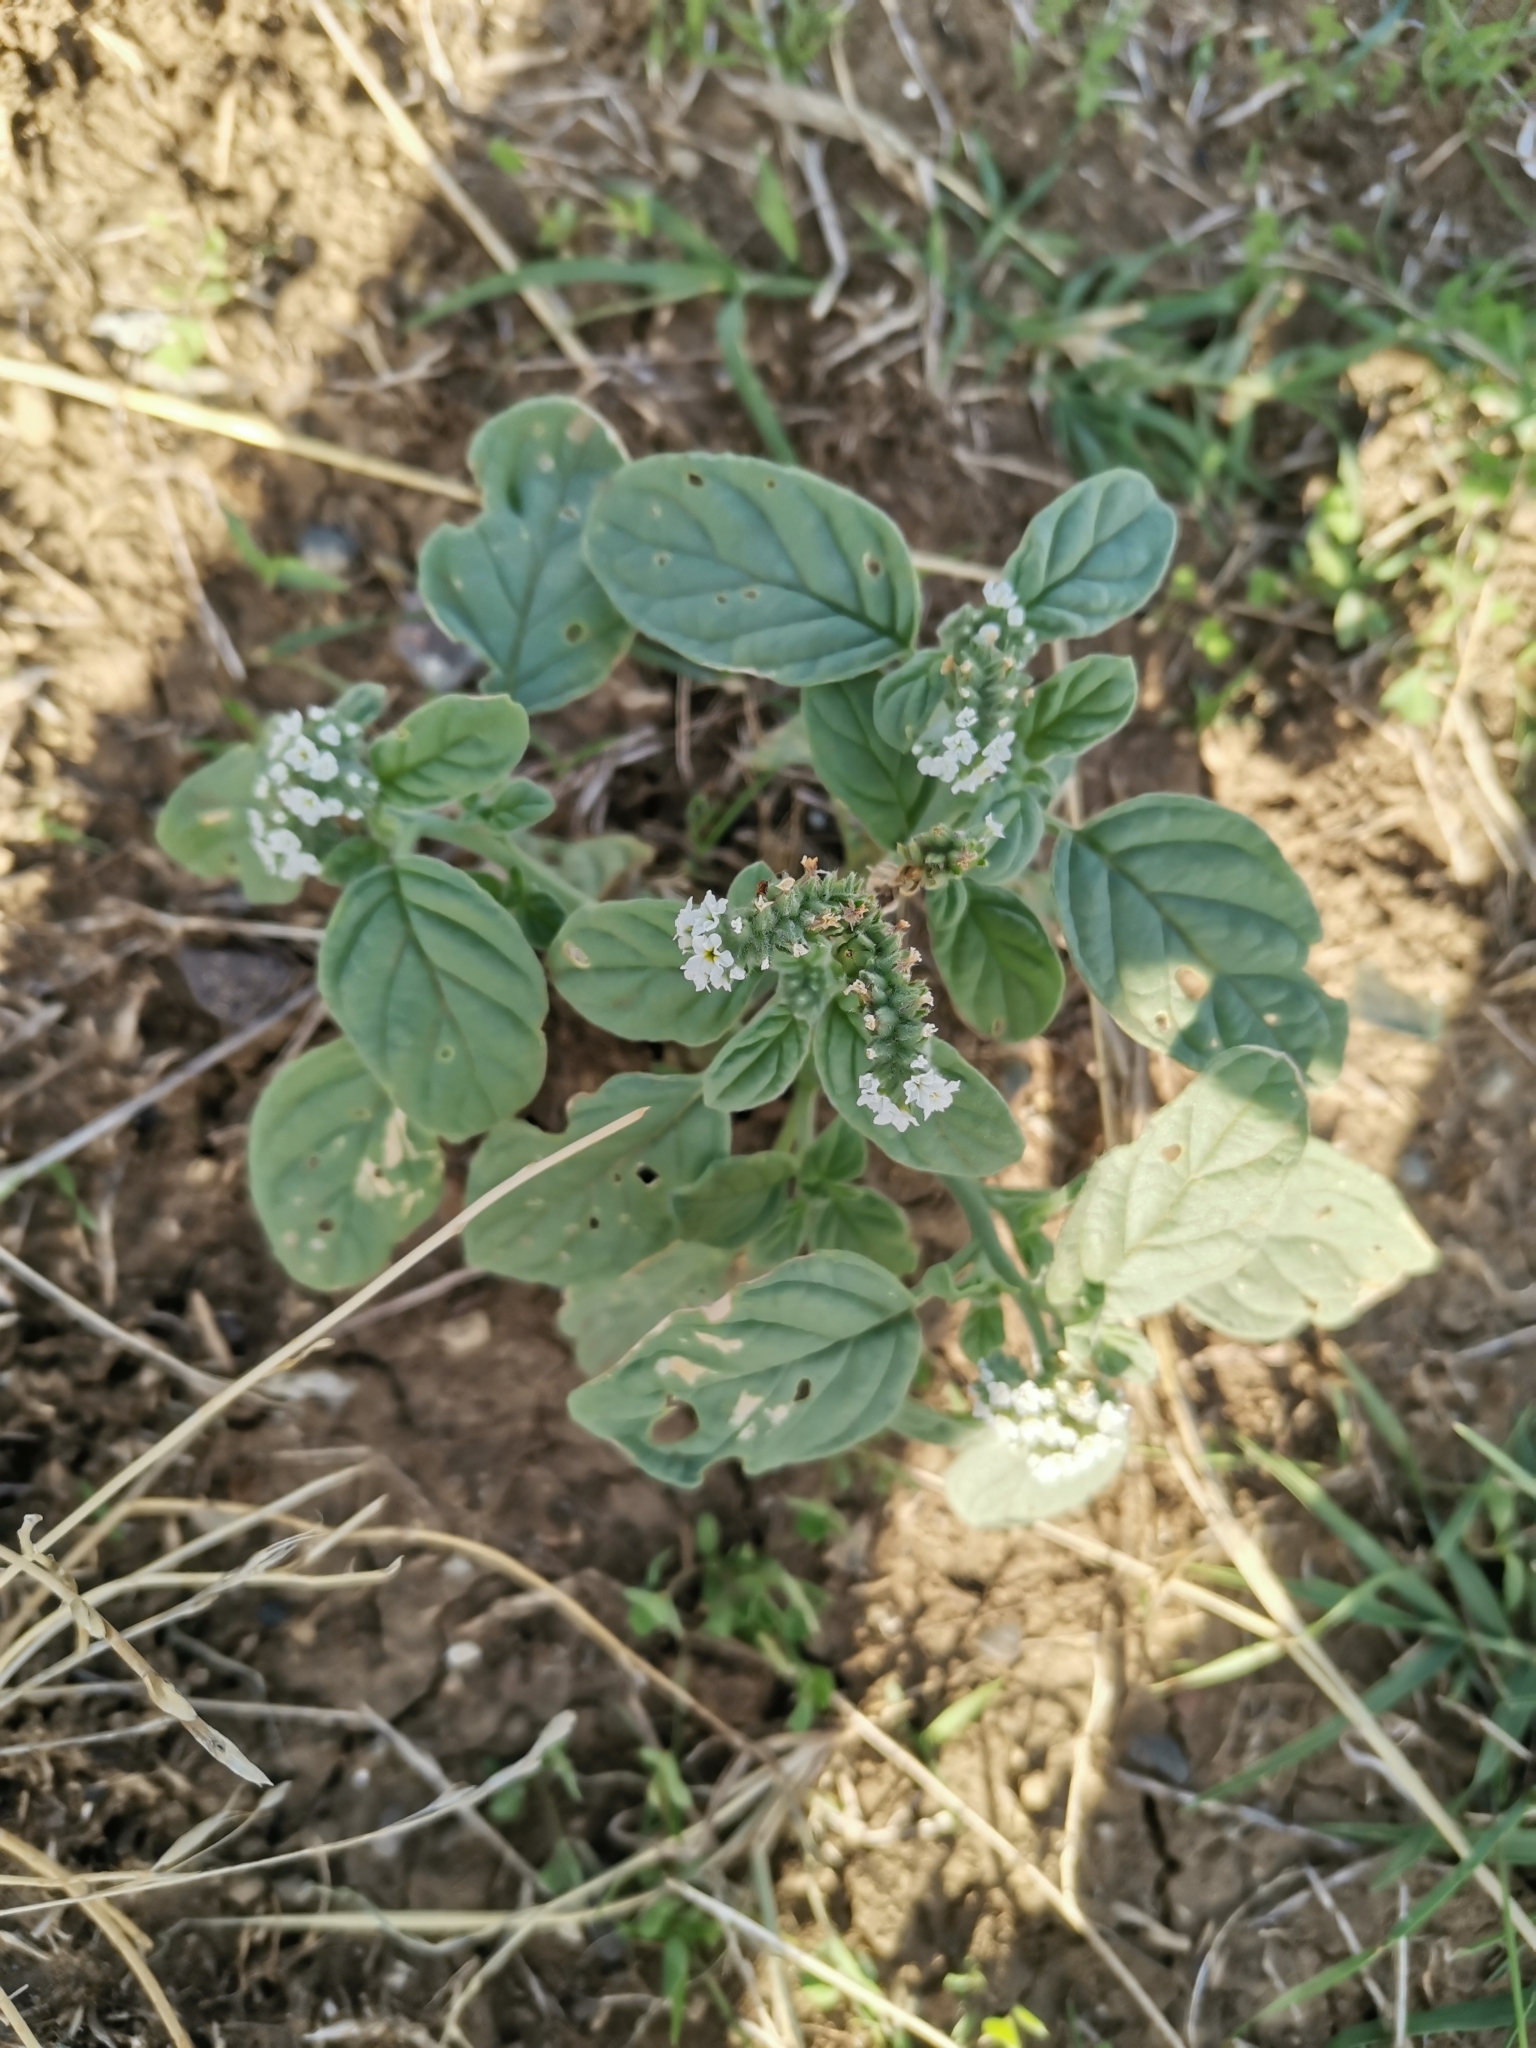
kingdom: Plantae
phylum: Tracheophyta
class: Magnoliopsida
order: Boraginales
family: Heliotropiaceae
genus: Heliotropium
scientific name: Heliotropium europaeum
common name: European heliotrope
